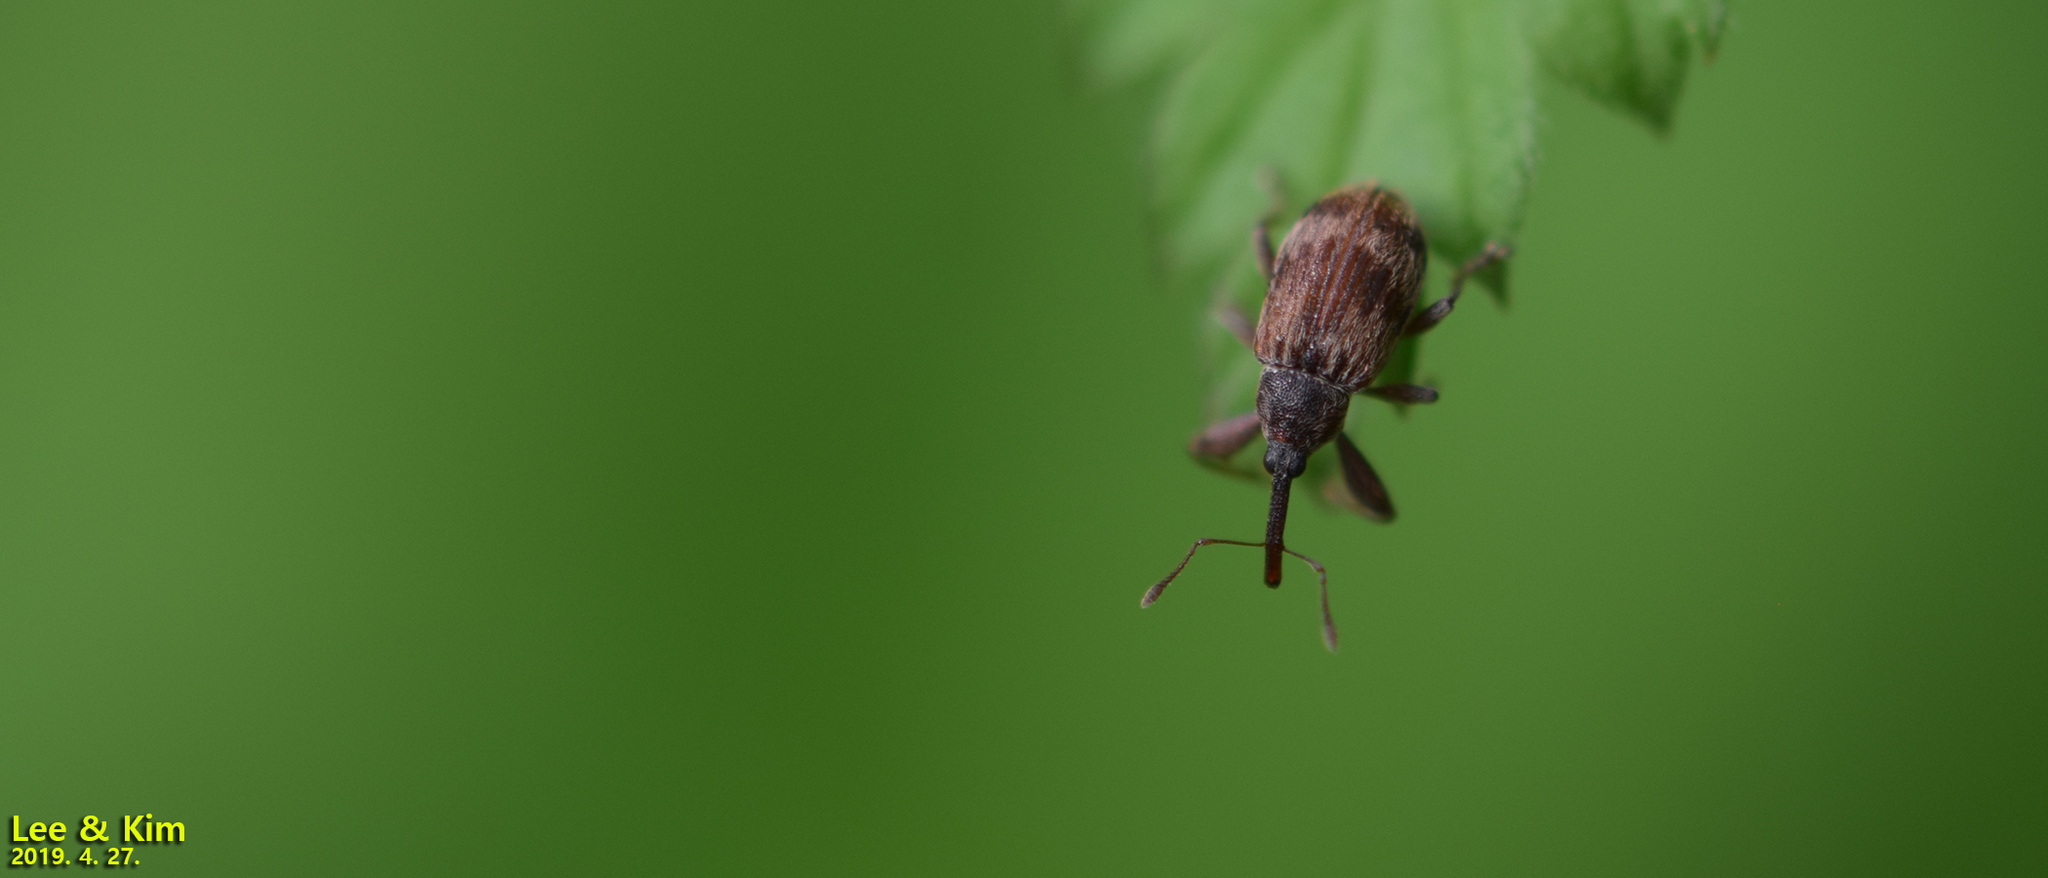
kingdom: Animalia
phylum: Arthropoda
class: Insecta
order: Coleoptera
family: Curculionidae
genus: Anthonomus
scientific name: Anthonomus rectirostris
